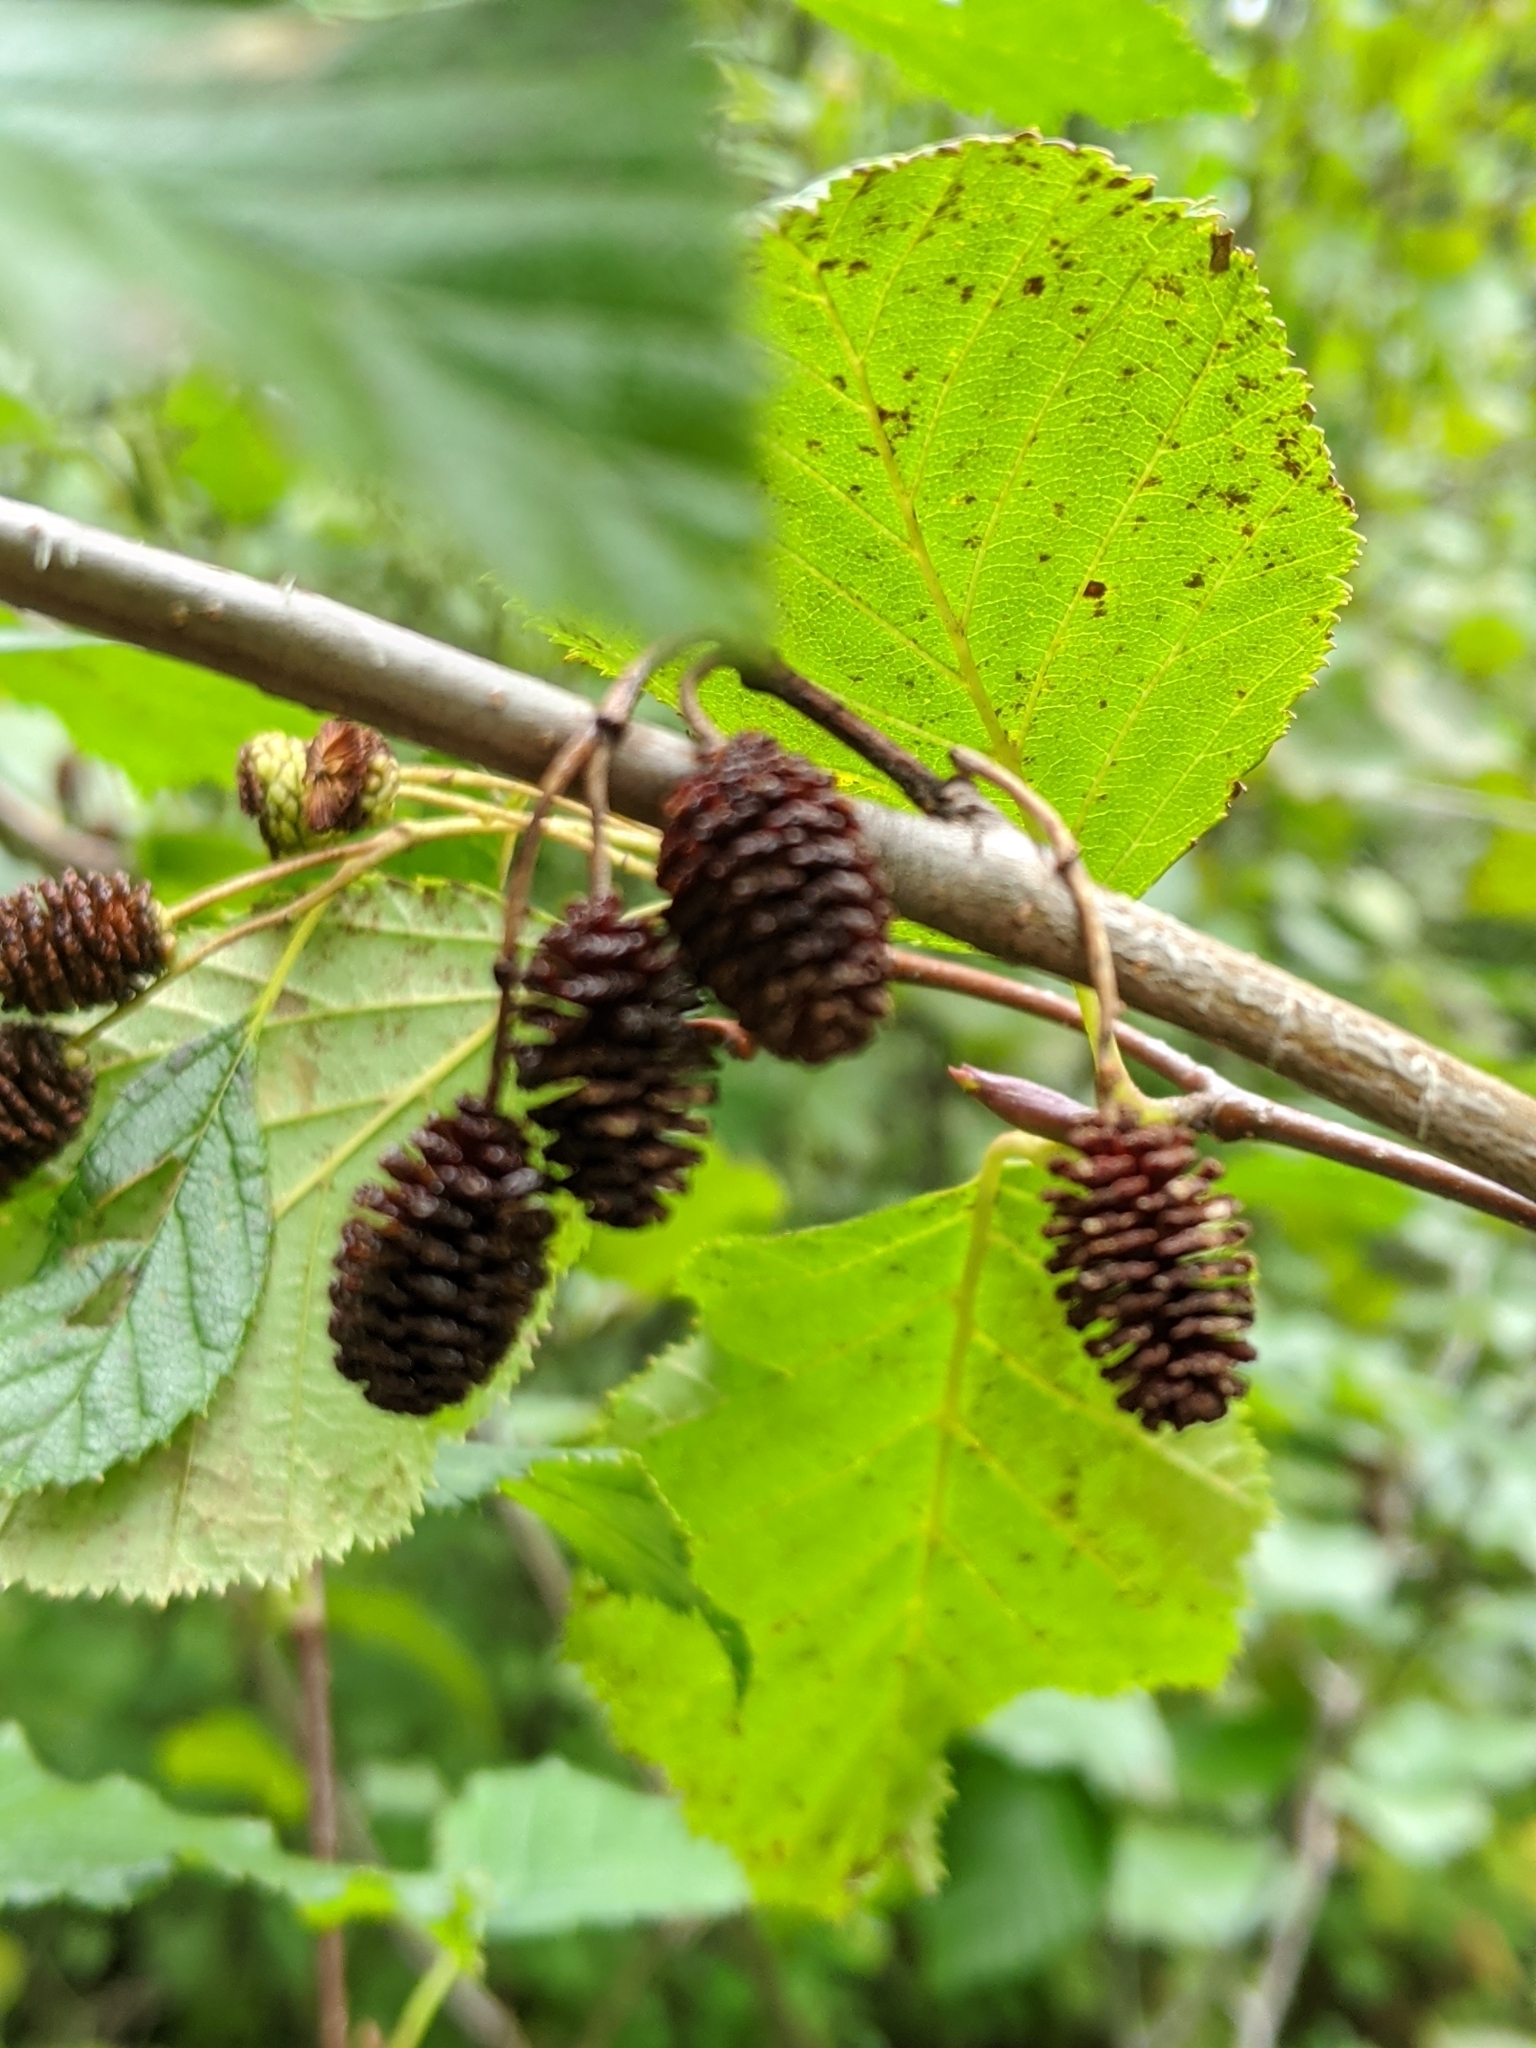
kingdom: Plantae
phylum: Tracheophyta
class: Magnoliopsida
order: Fagales
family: Betulaceae
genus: Alnus
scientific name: Alnus alnobetula
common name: Green alder
